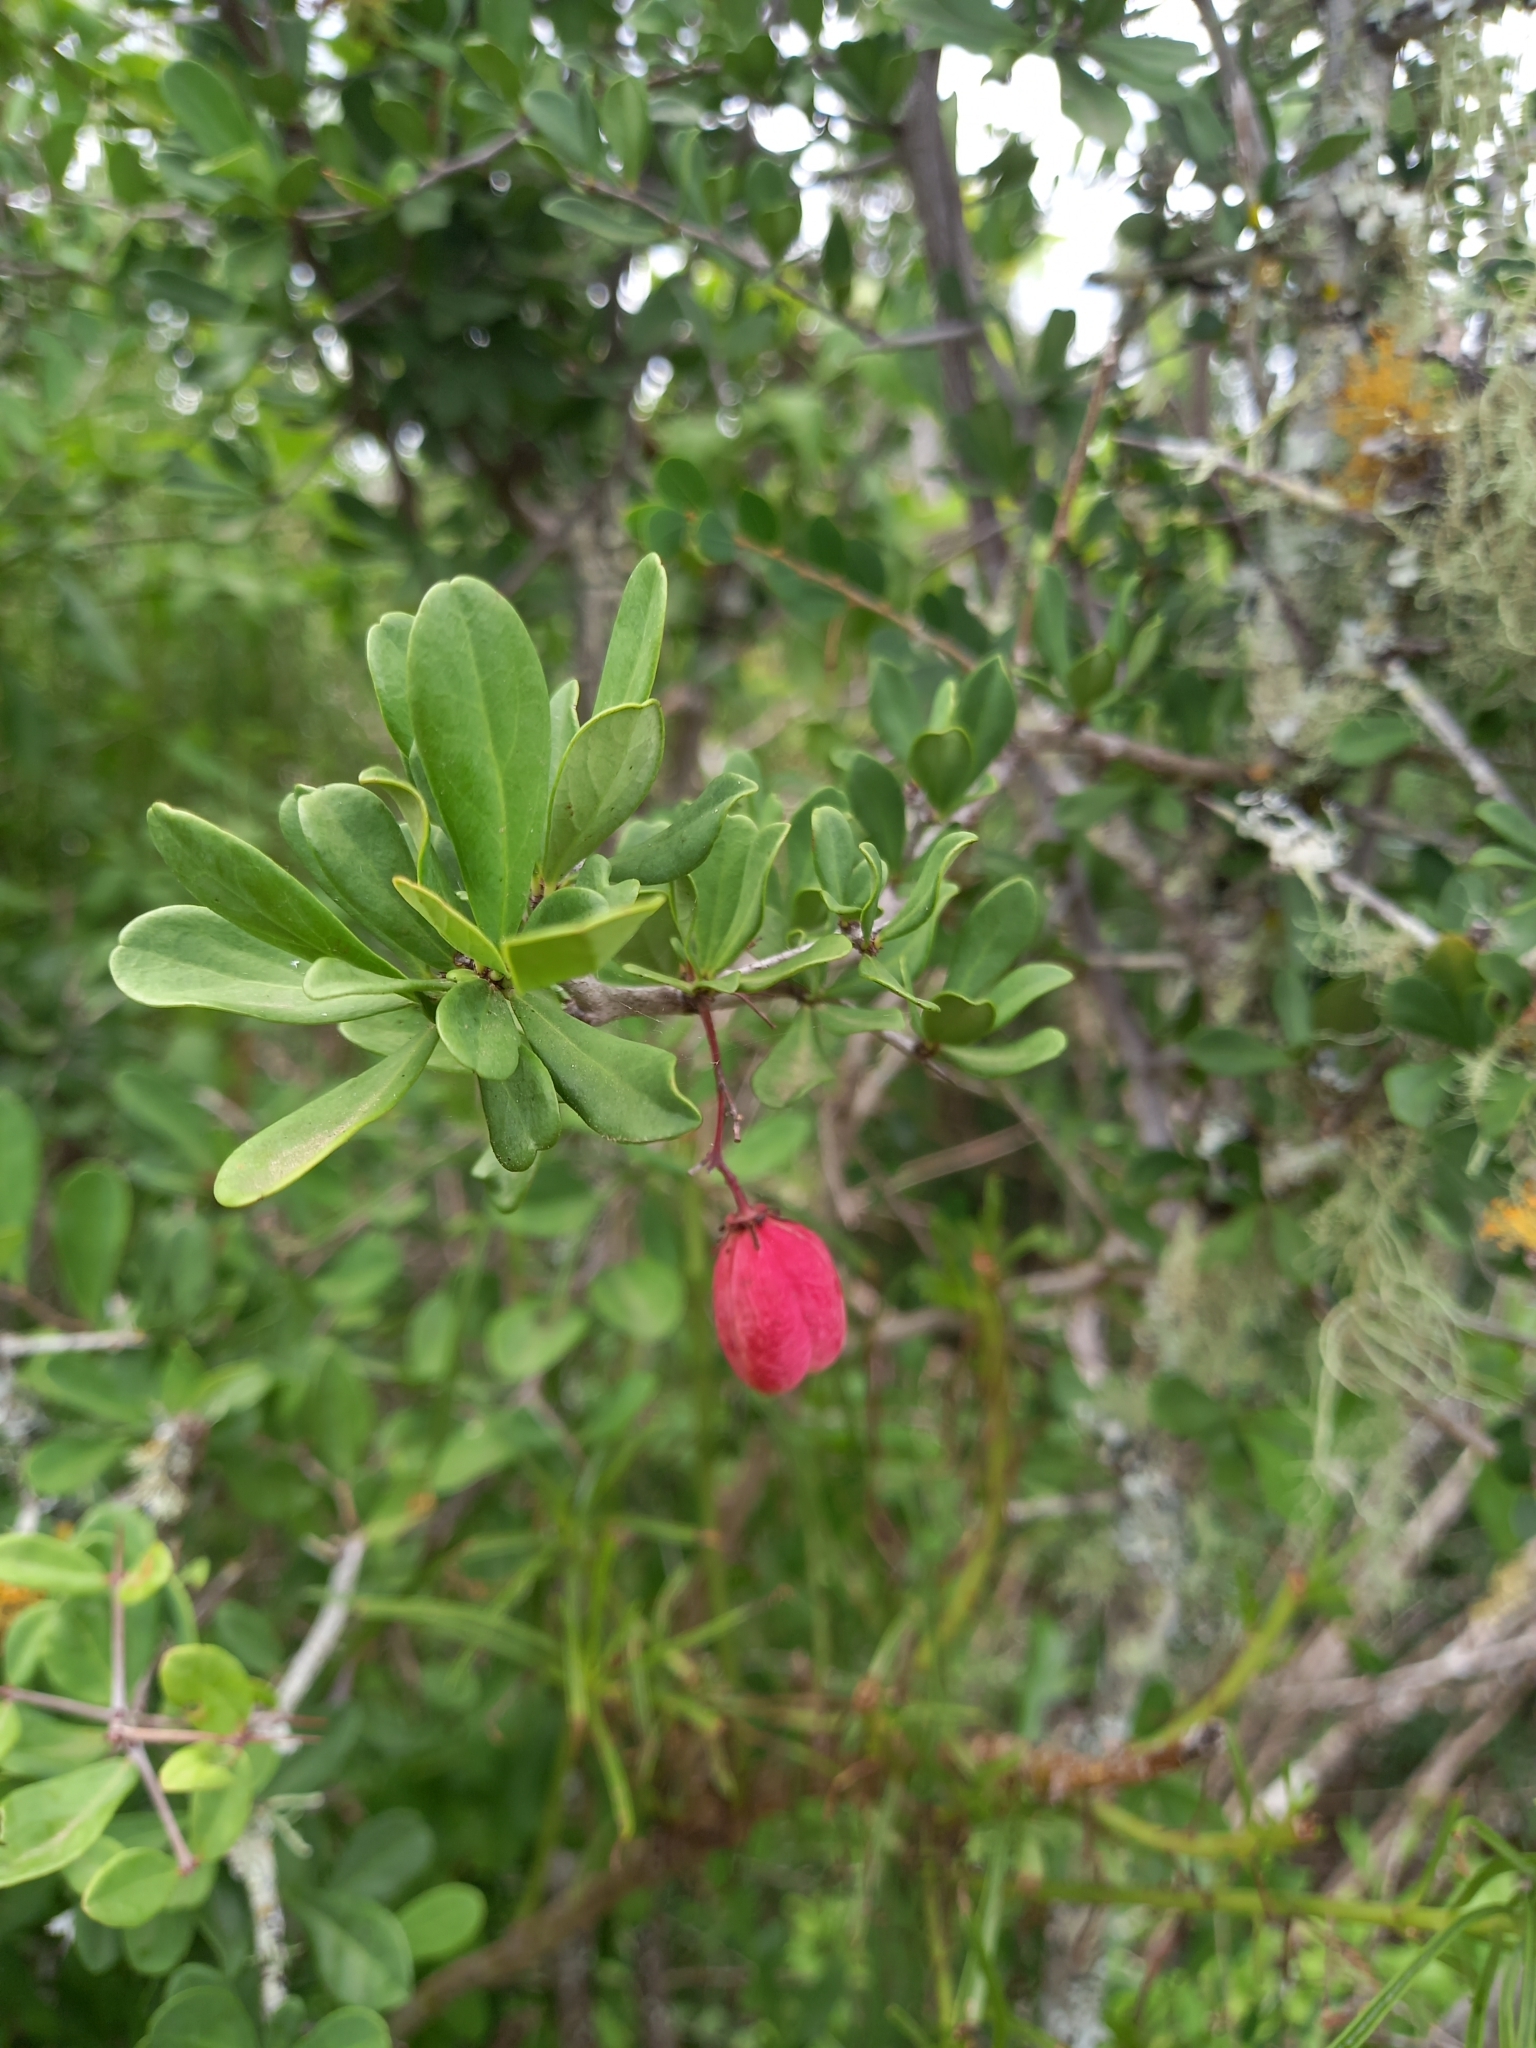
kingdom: Plantae
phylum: Tracheophyta
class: Magnoliopsida
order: Celastrales
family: Celastraceae
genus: Putterlickia
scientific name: Putterlickia pyracantha
